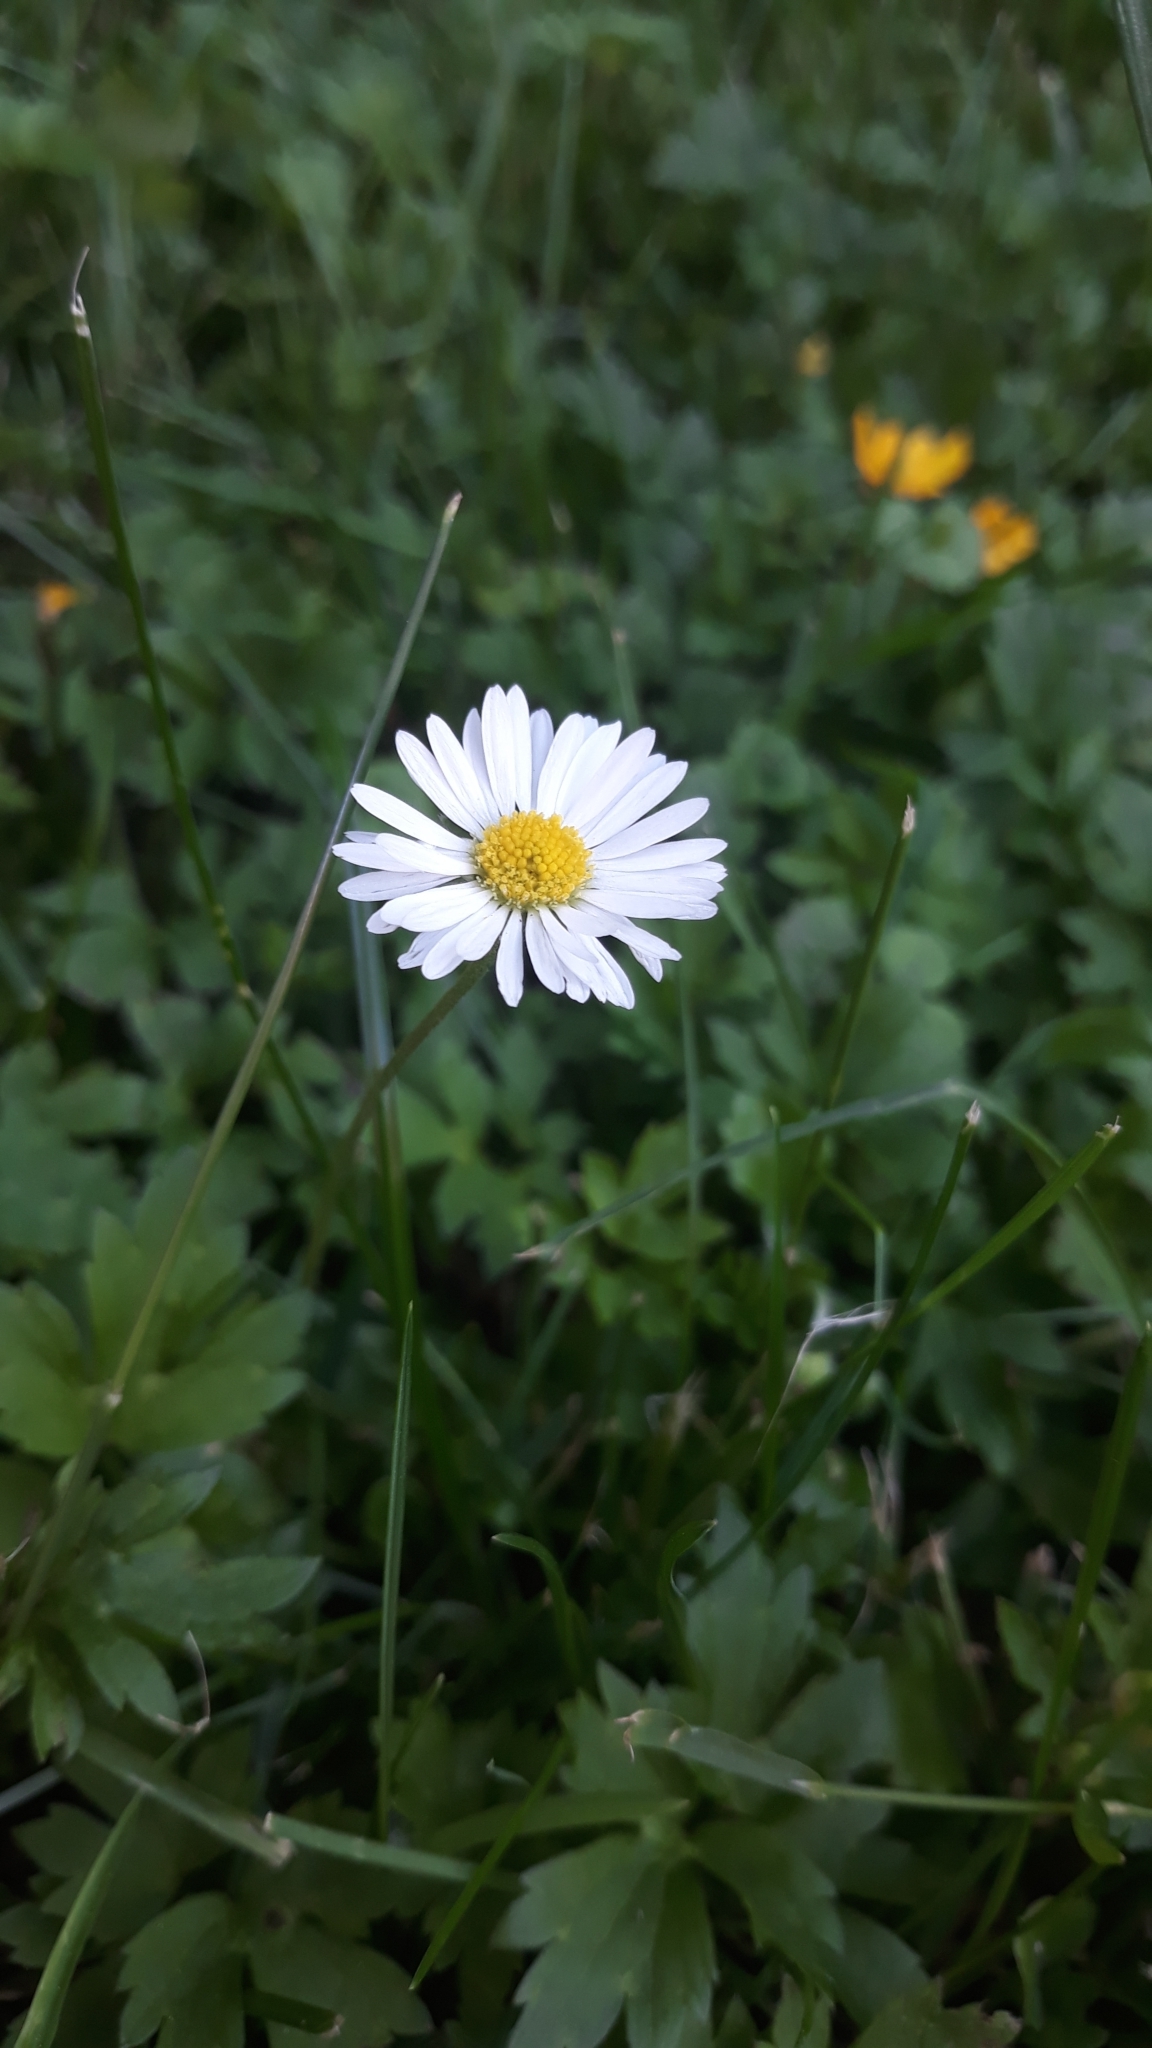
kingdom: Plantae
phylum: Tracheophyta
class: Magnoliopsida
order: Asterales
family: Asteraceae
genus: Bellis
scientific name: Bellis perennis
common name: Lawndaisy
